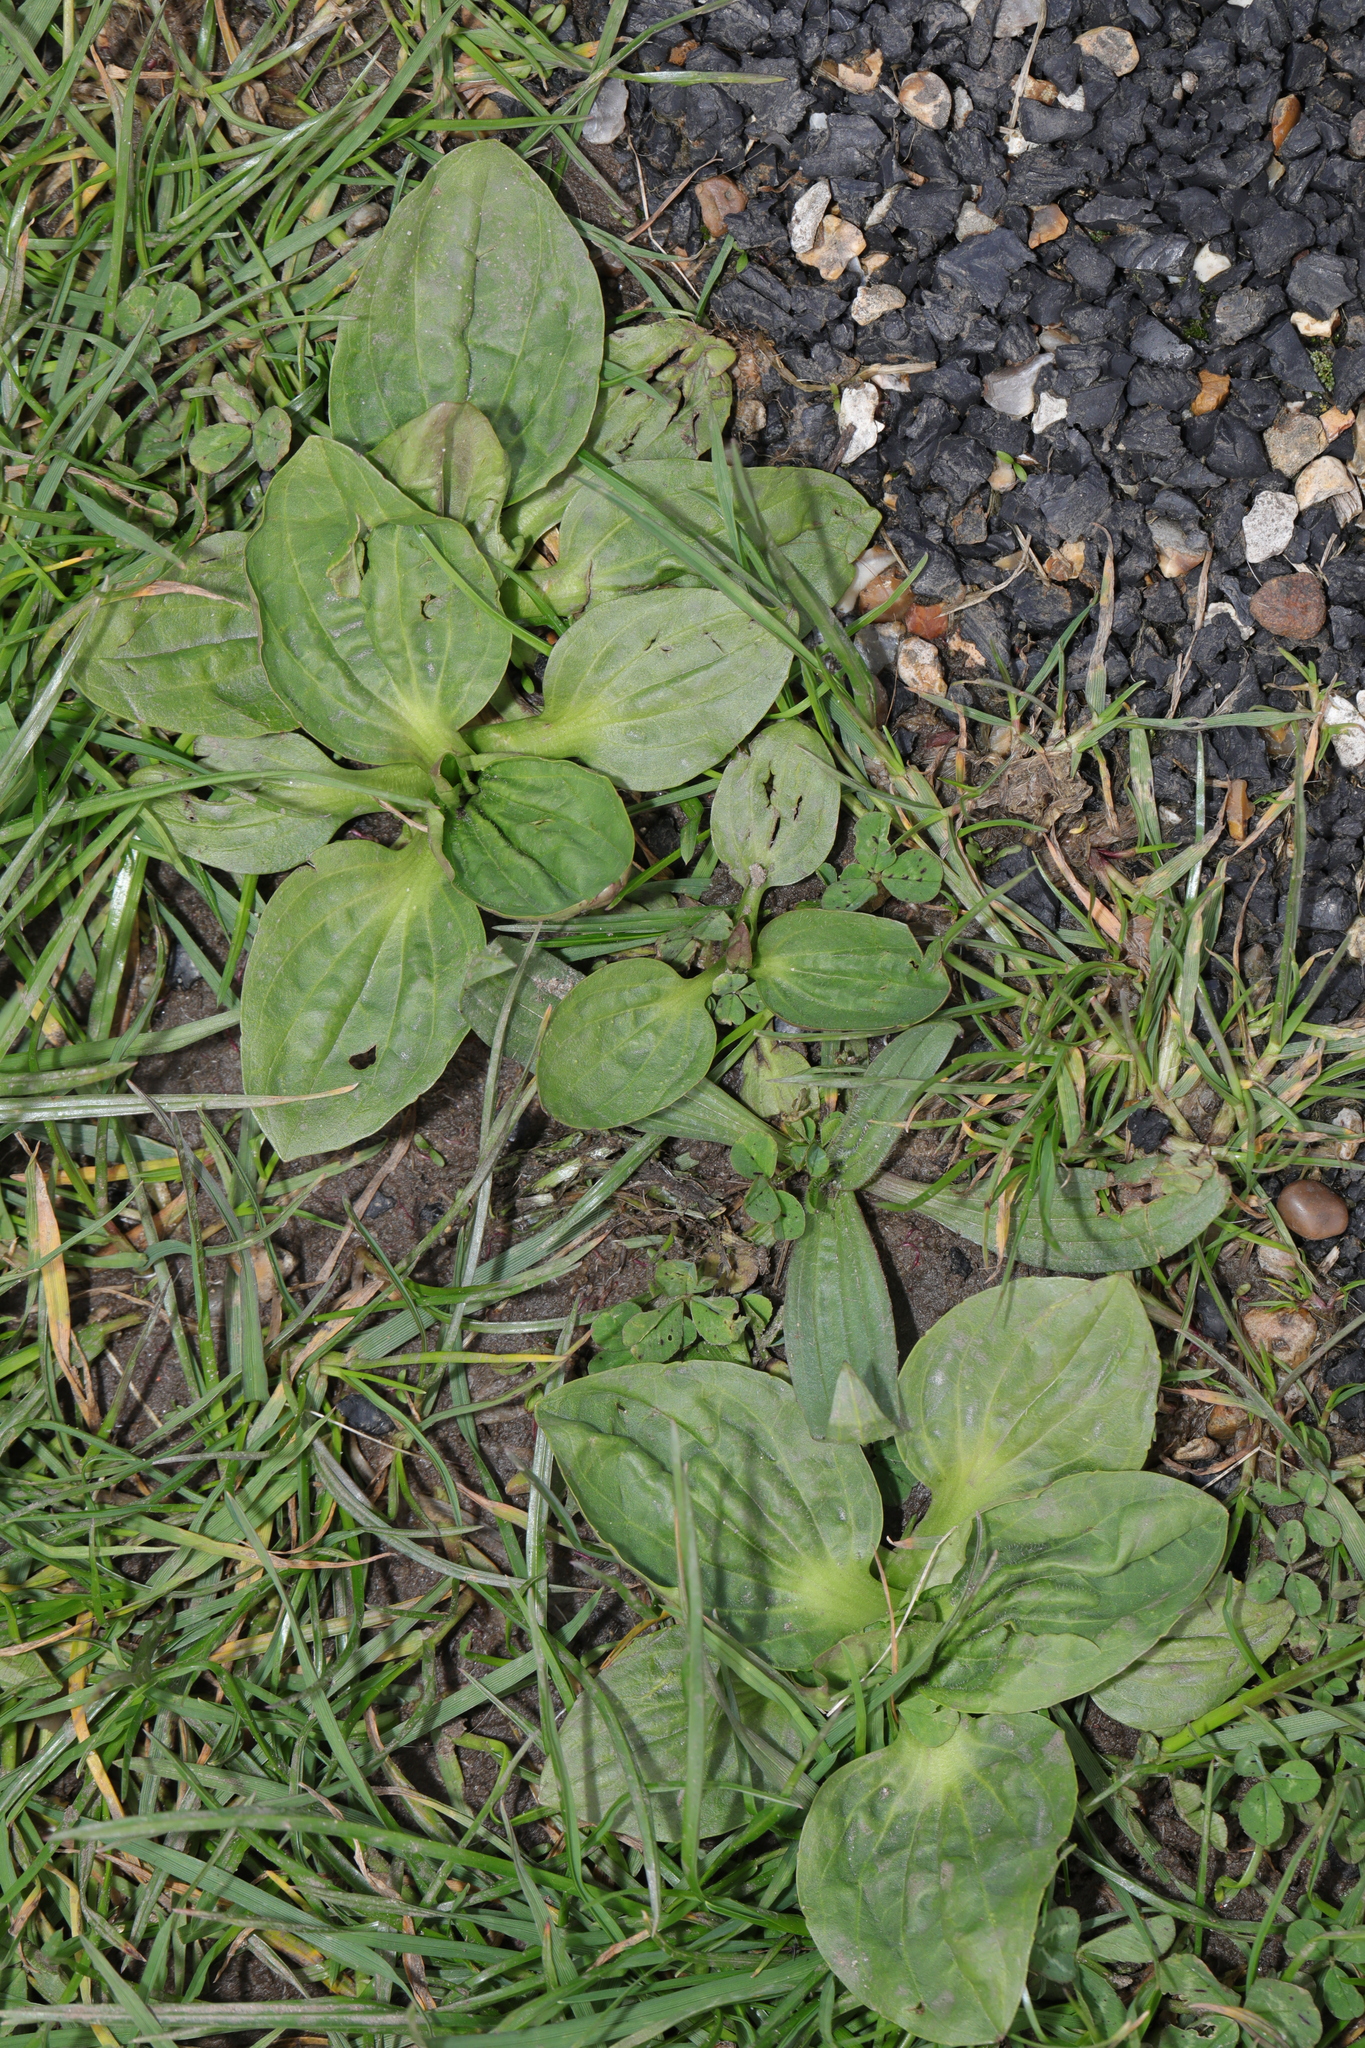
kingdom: Plantae
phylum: Tracheophyta
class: Magnoliopsida
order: Lamiales
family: Plantaginaceae
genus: Plantago
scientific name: Plantago major
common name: Common plantain
